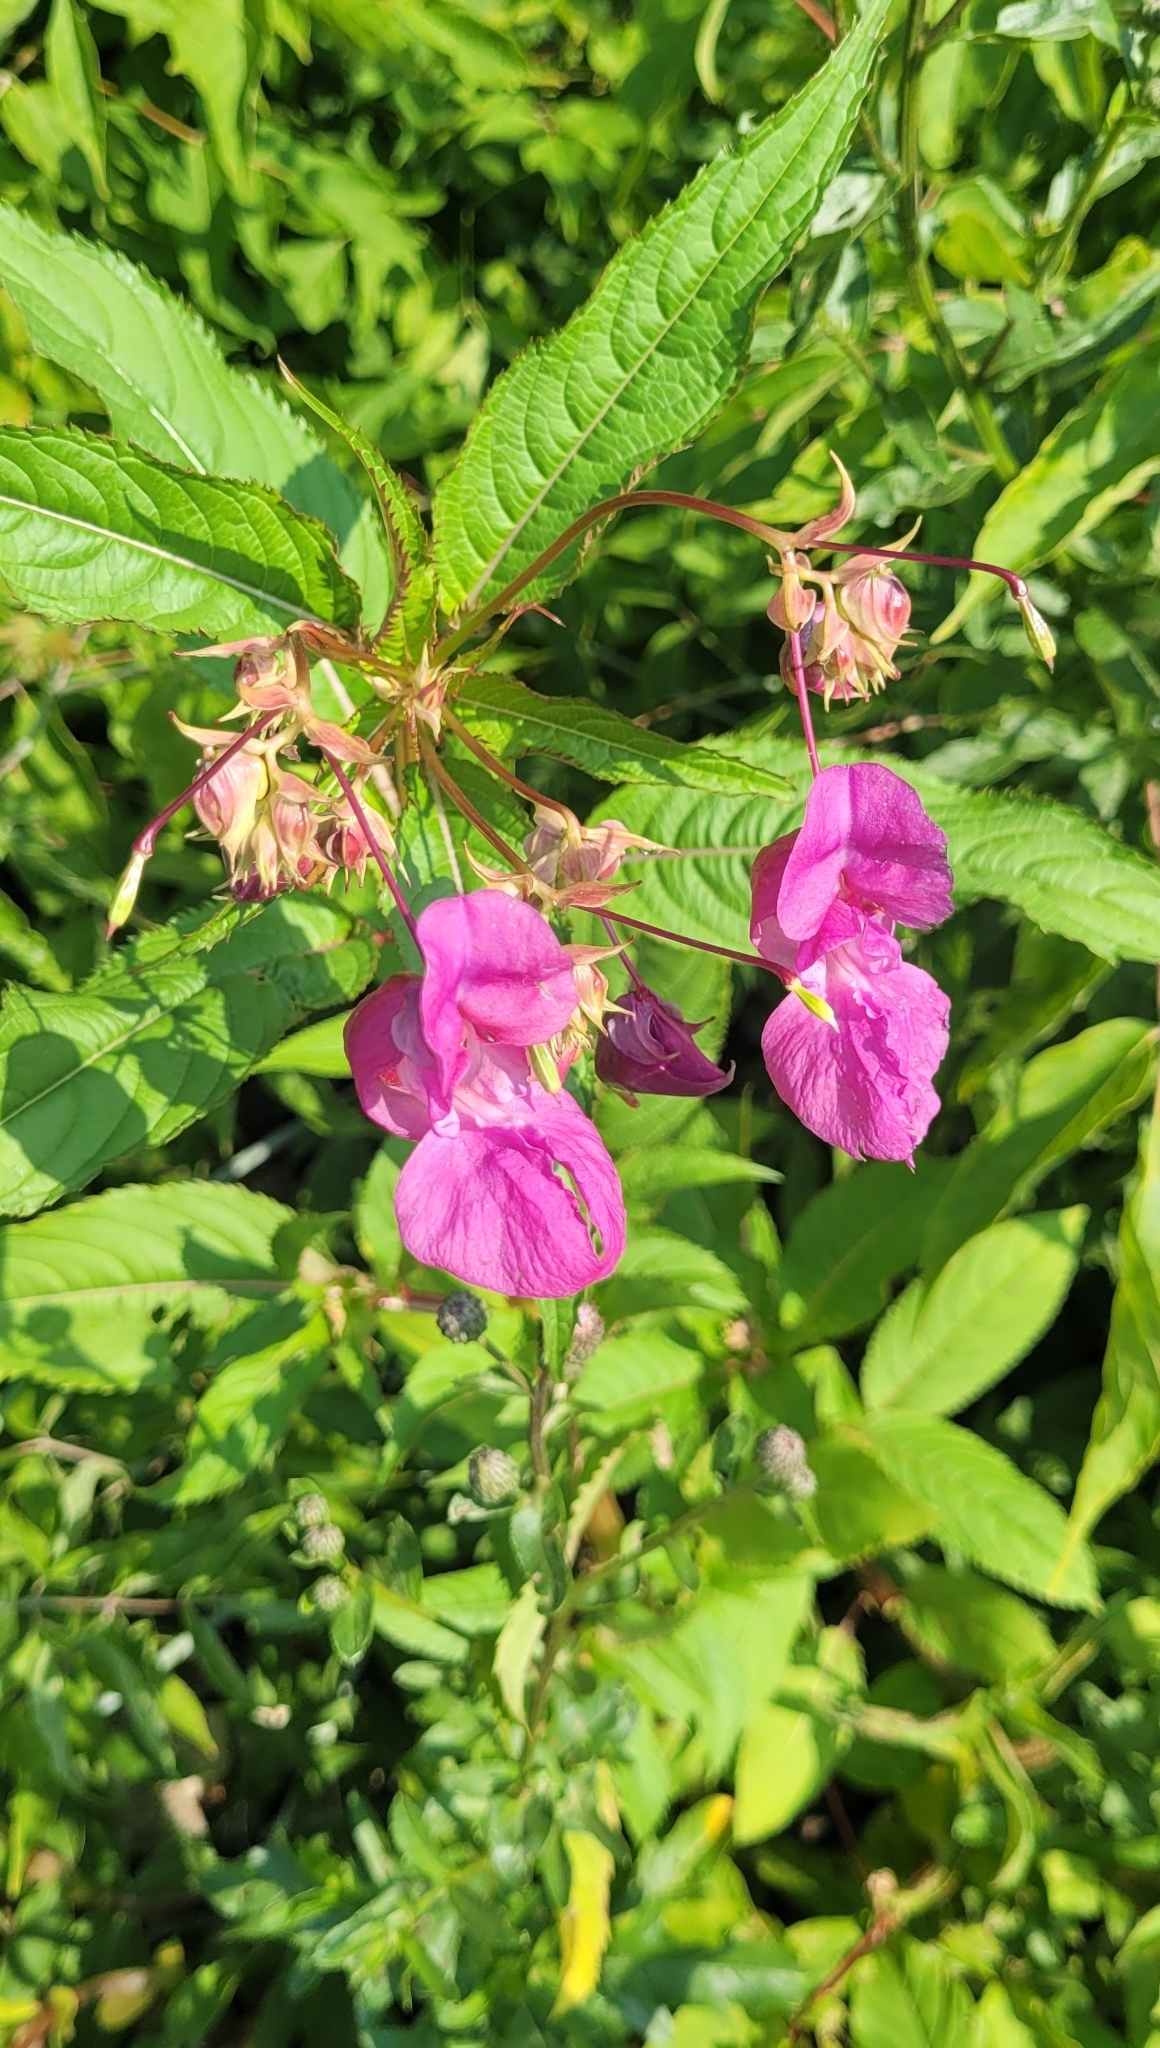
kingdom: Plantae
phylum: Tracheophyta
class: Magnoliopsida
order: Ericales
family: Balsaminaceae
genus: Impatiens
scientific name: Impatiens glandulifera
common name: Himalayan balsam
